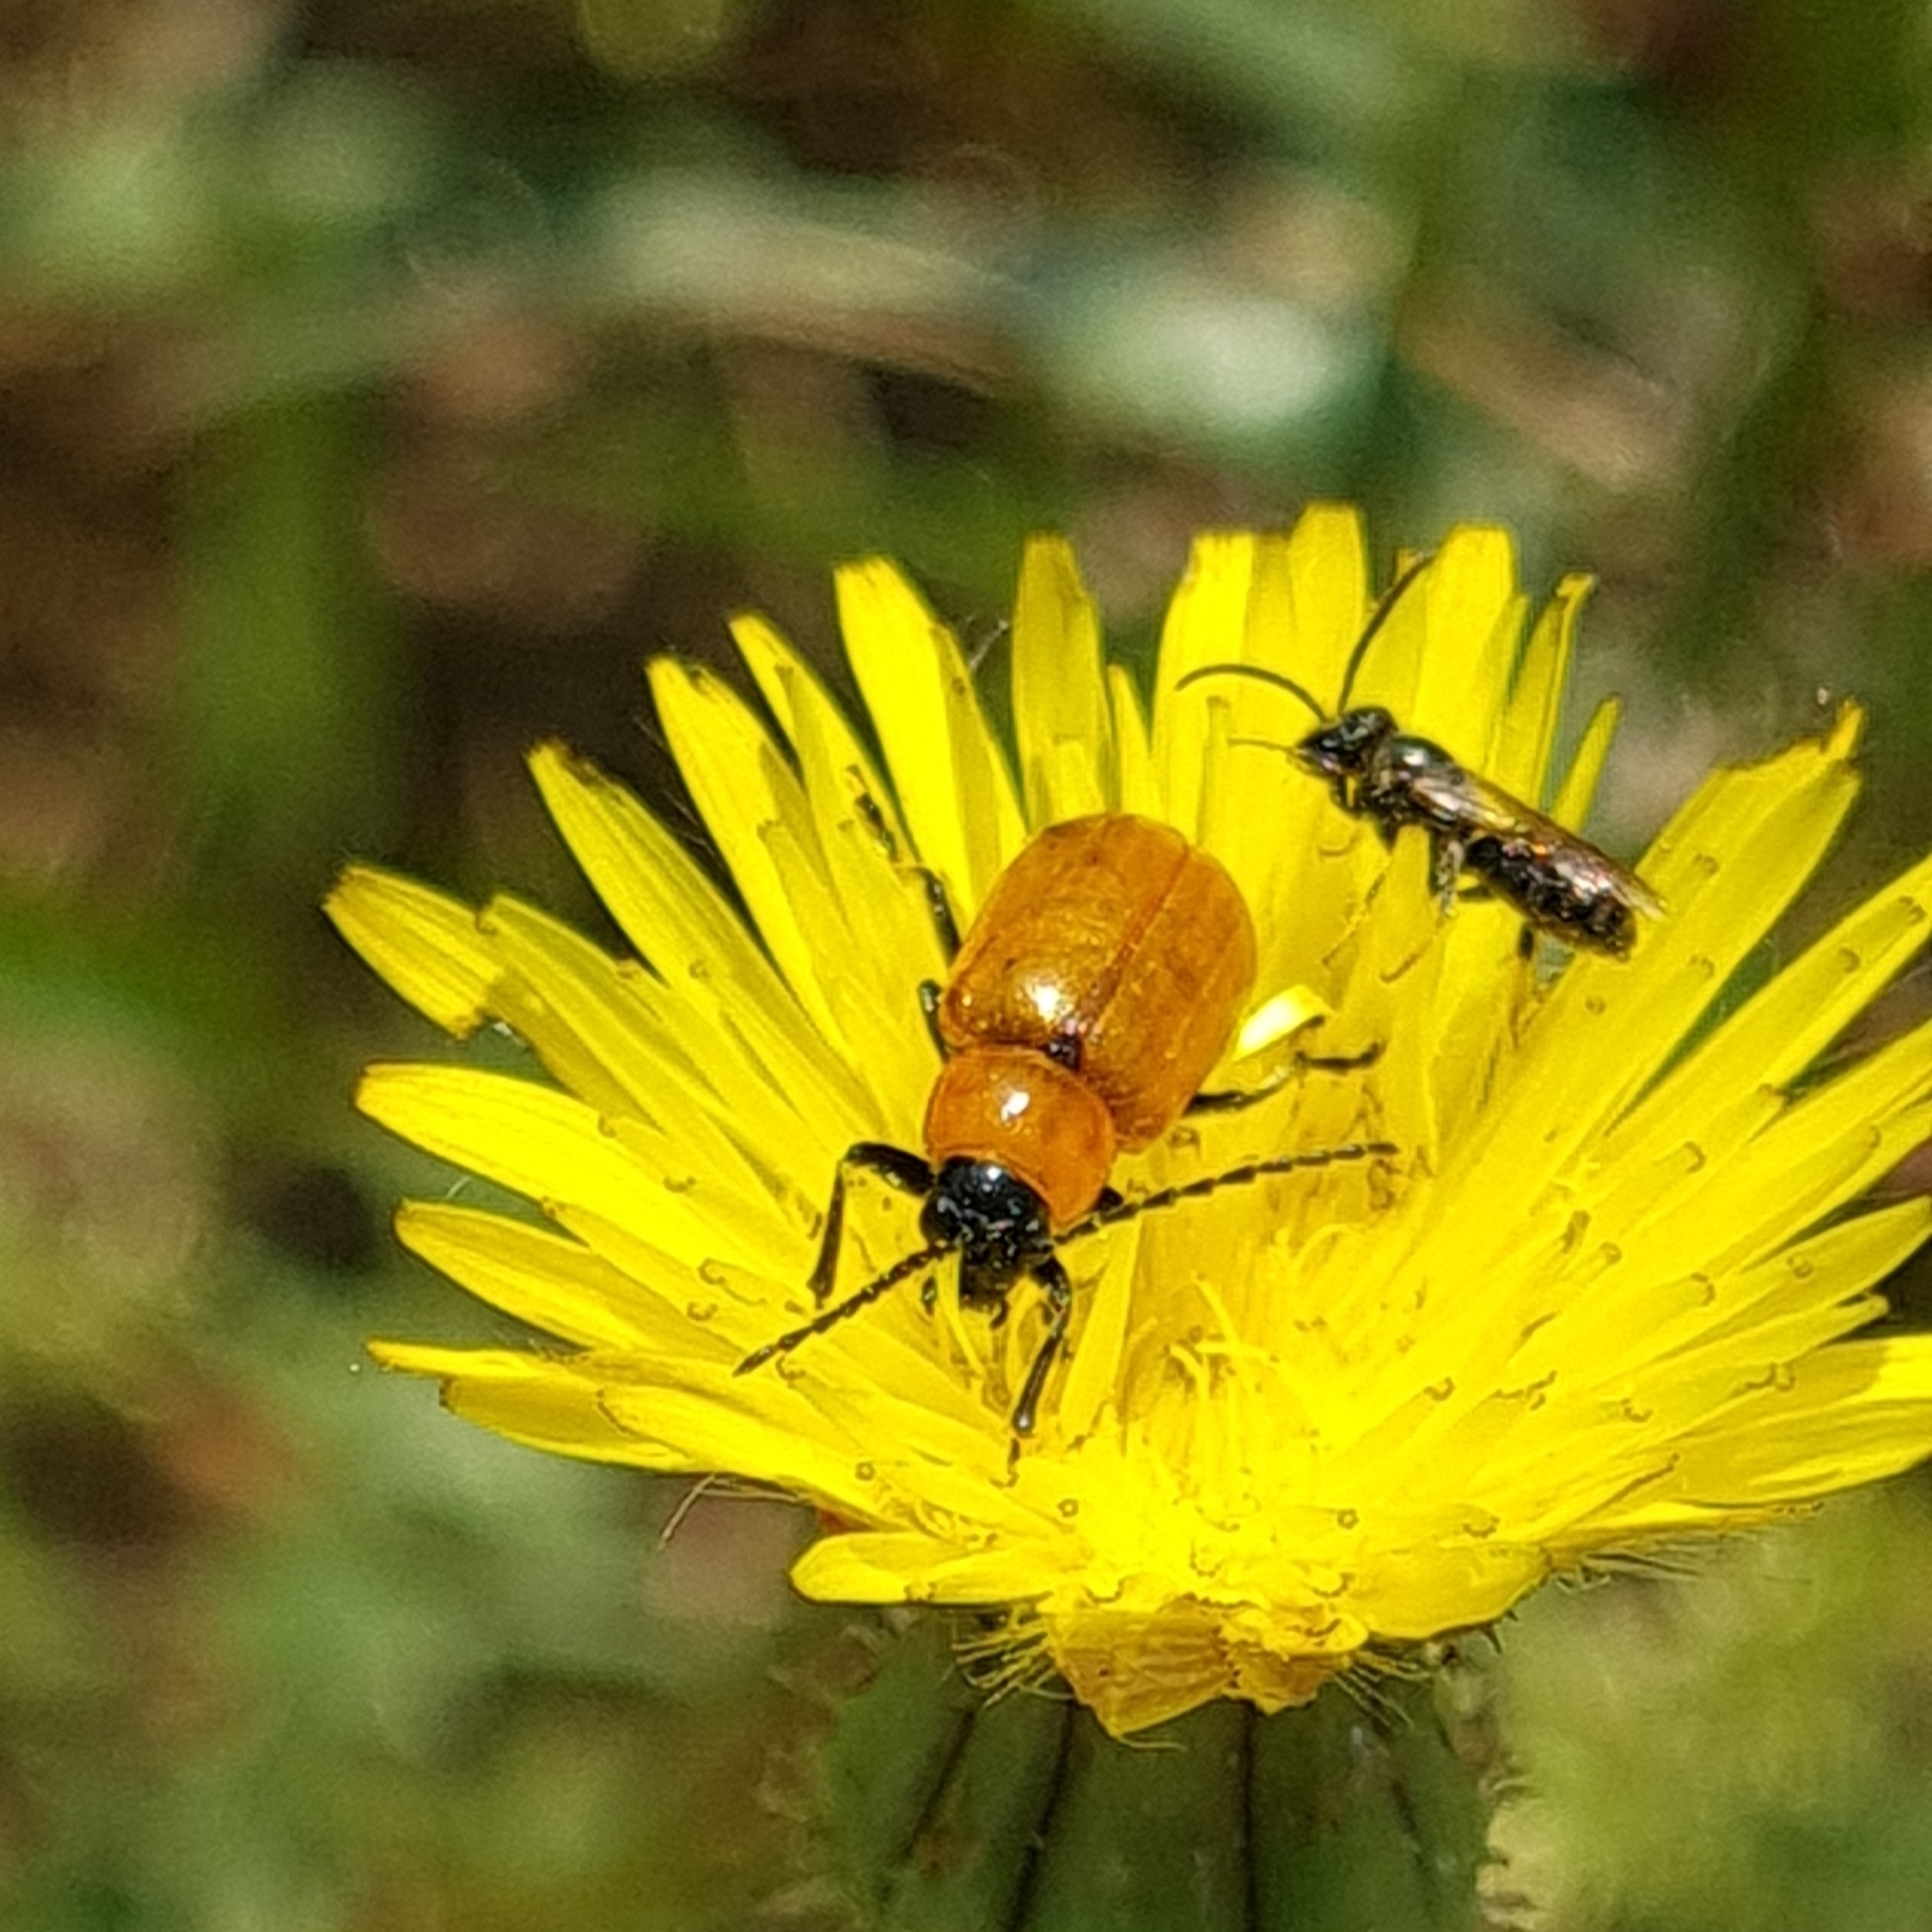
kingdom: Animalia
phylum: Arthropoda
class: Insecta
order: Coleoptera
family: Chrysomelidae
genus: Exosoma
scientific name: Exosoma lusitanicum
